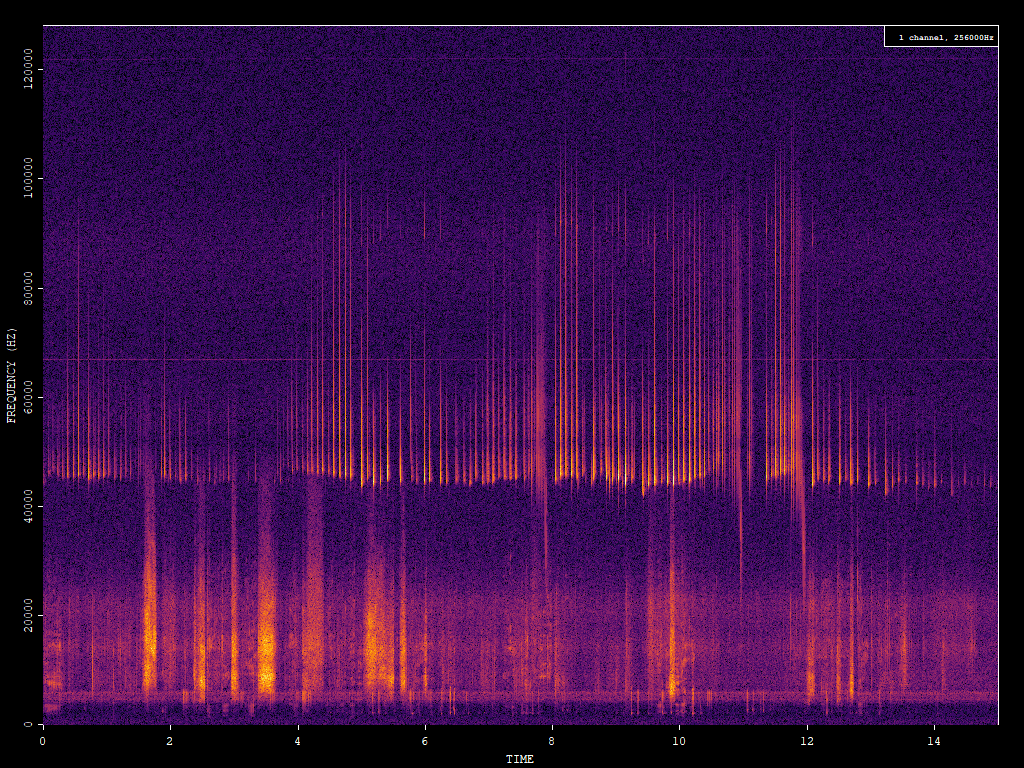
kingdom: Animalia
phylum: Chordata
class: Mammalia
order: Chiroptera
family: Vespertilionidae
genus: Pipistrellus
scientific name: Pipistrellus pipistrellus
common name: Common pipistrelle
